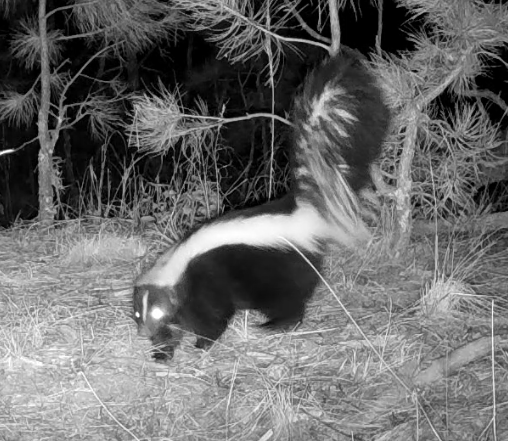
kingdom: Animalia
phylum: Chordata
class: Mammalia
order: Carnivora
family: Mephitidae
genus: Mephitis
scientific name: Mephitis mephitis
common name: Striped skunk
